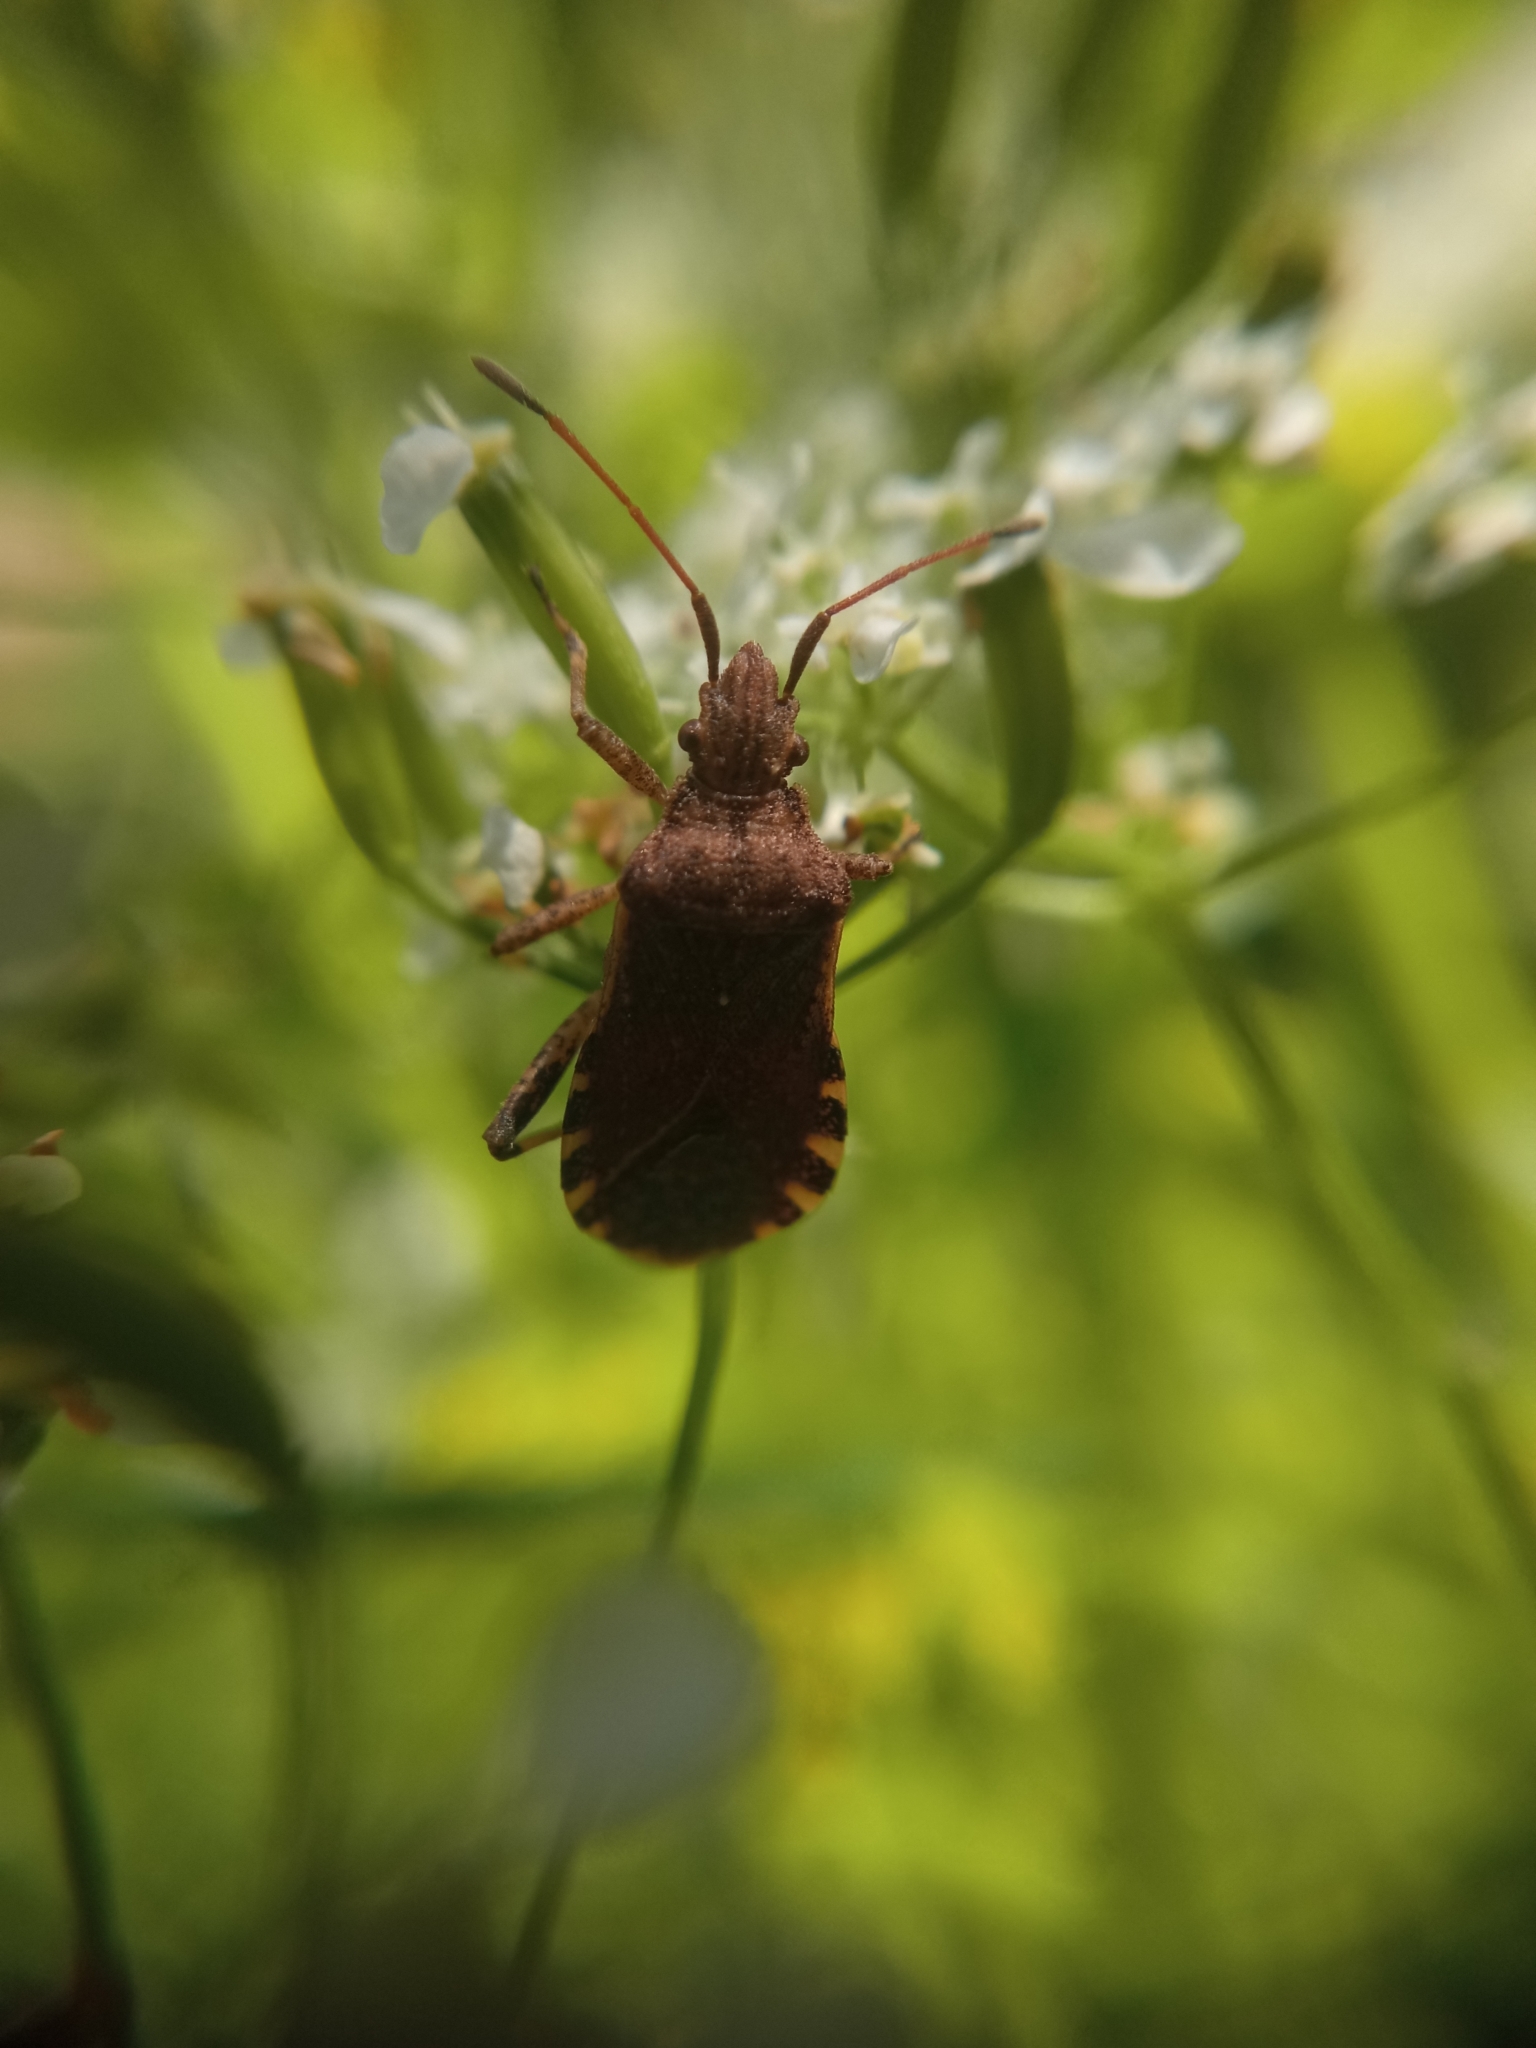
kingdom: Animalia
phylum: Arthropoda
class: Insecta
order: Hemiptera
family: Coreidae
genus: Ceraleptus
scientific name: Ceraleptus gracilicornis
